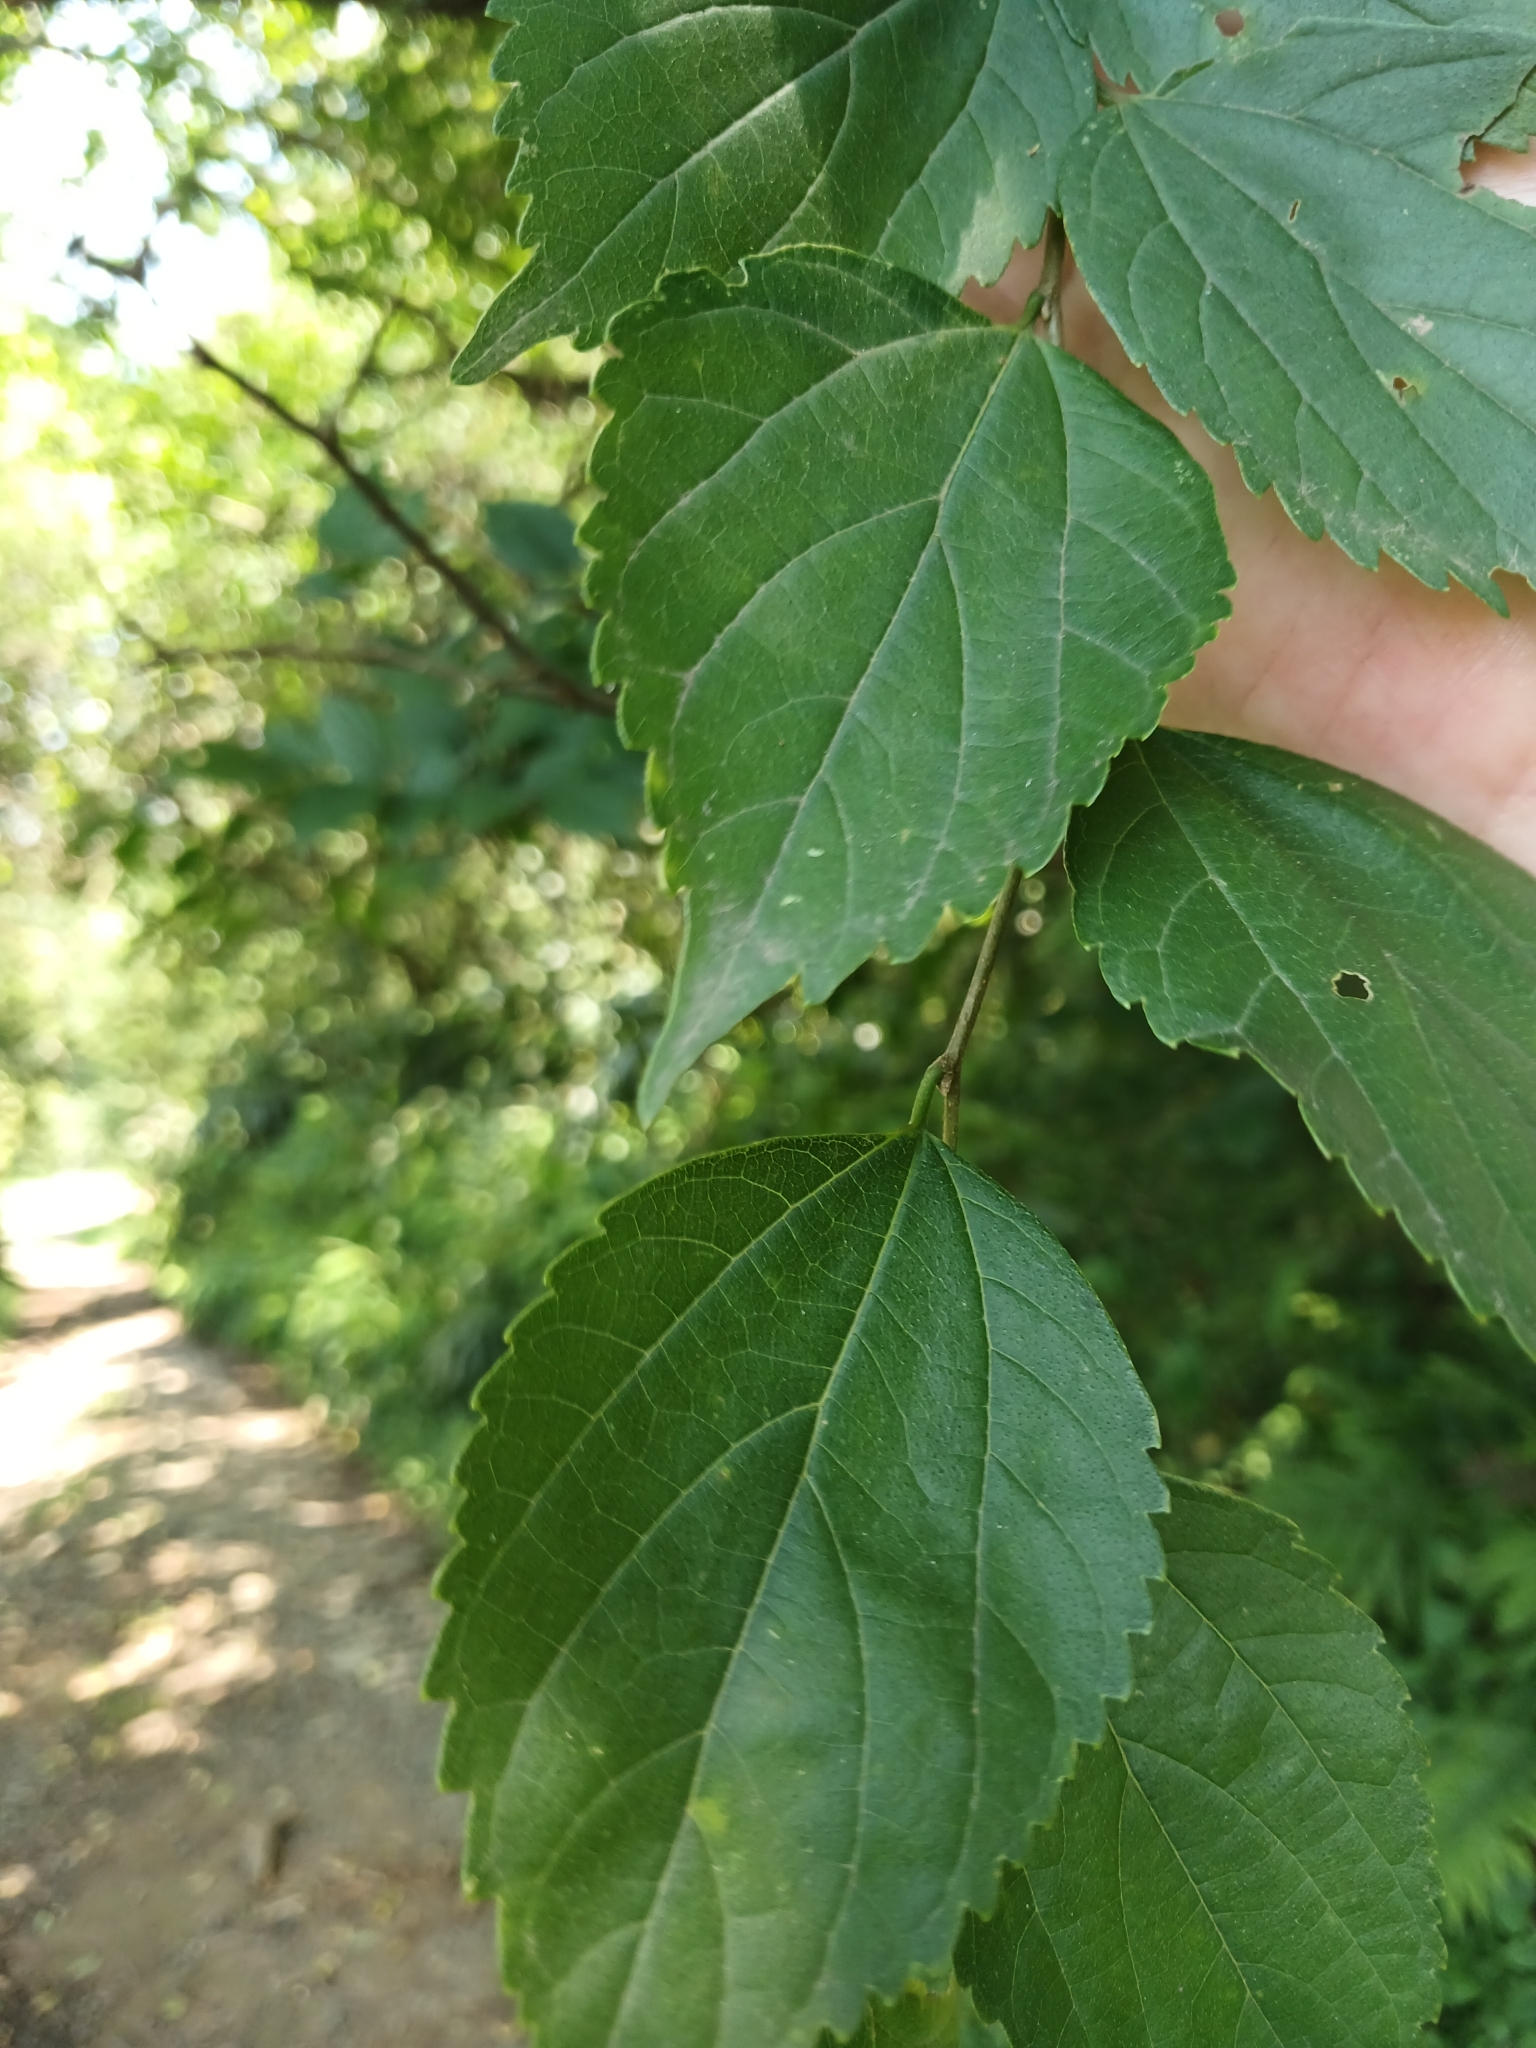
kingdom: Plantae
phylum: Tracheophyta
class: Magnoliopsida
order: Rosales
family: Cannabaceae
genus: Celtis
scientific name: Celtis africana
